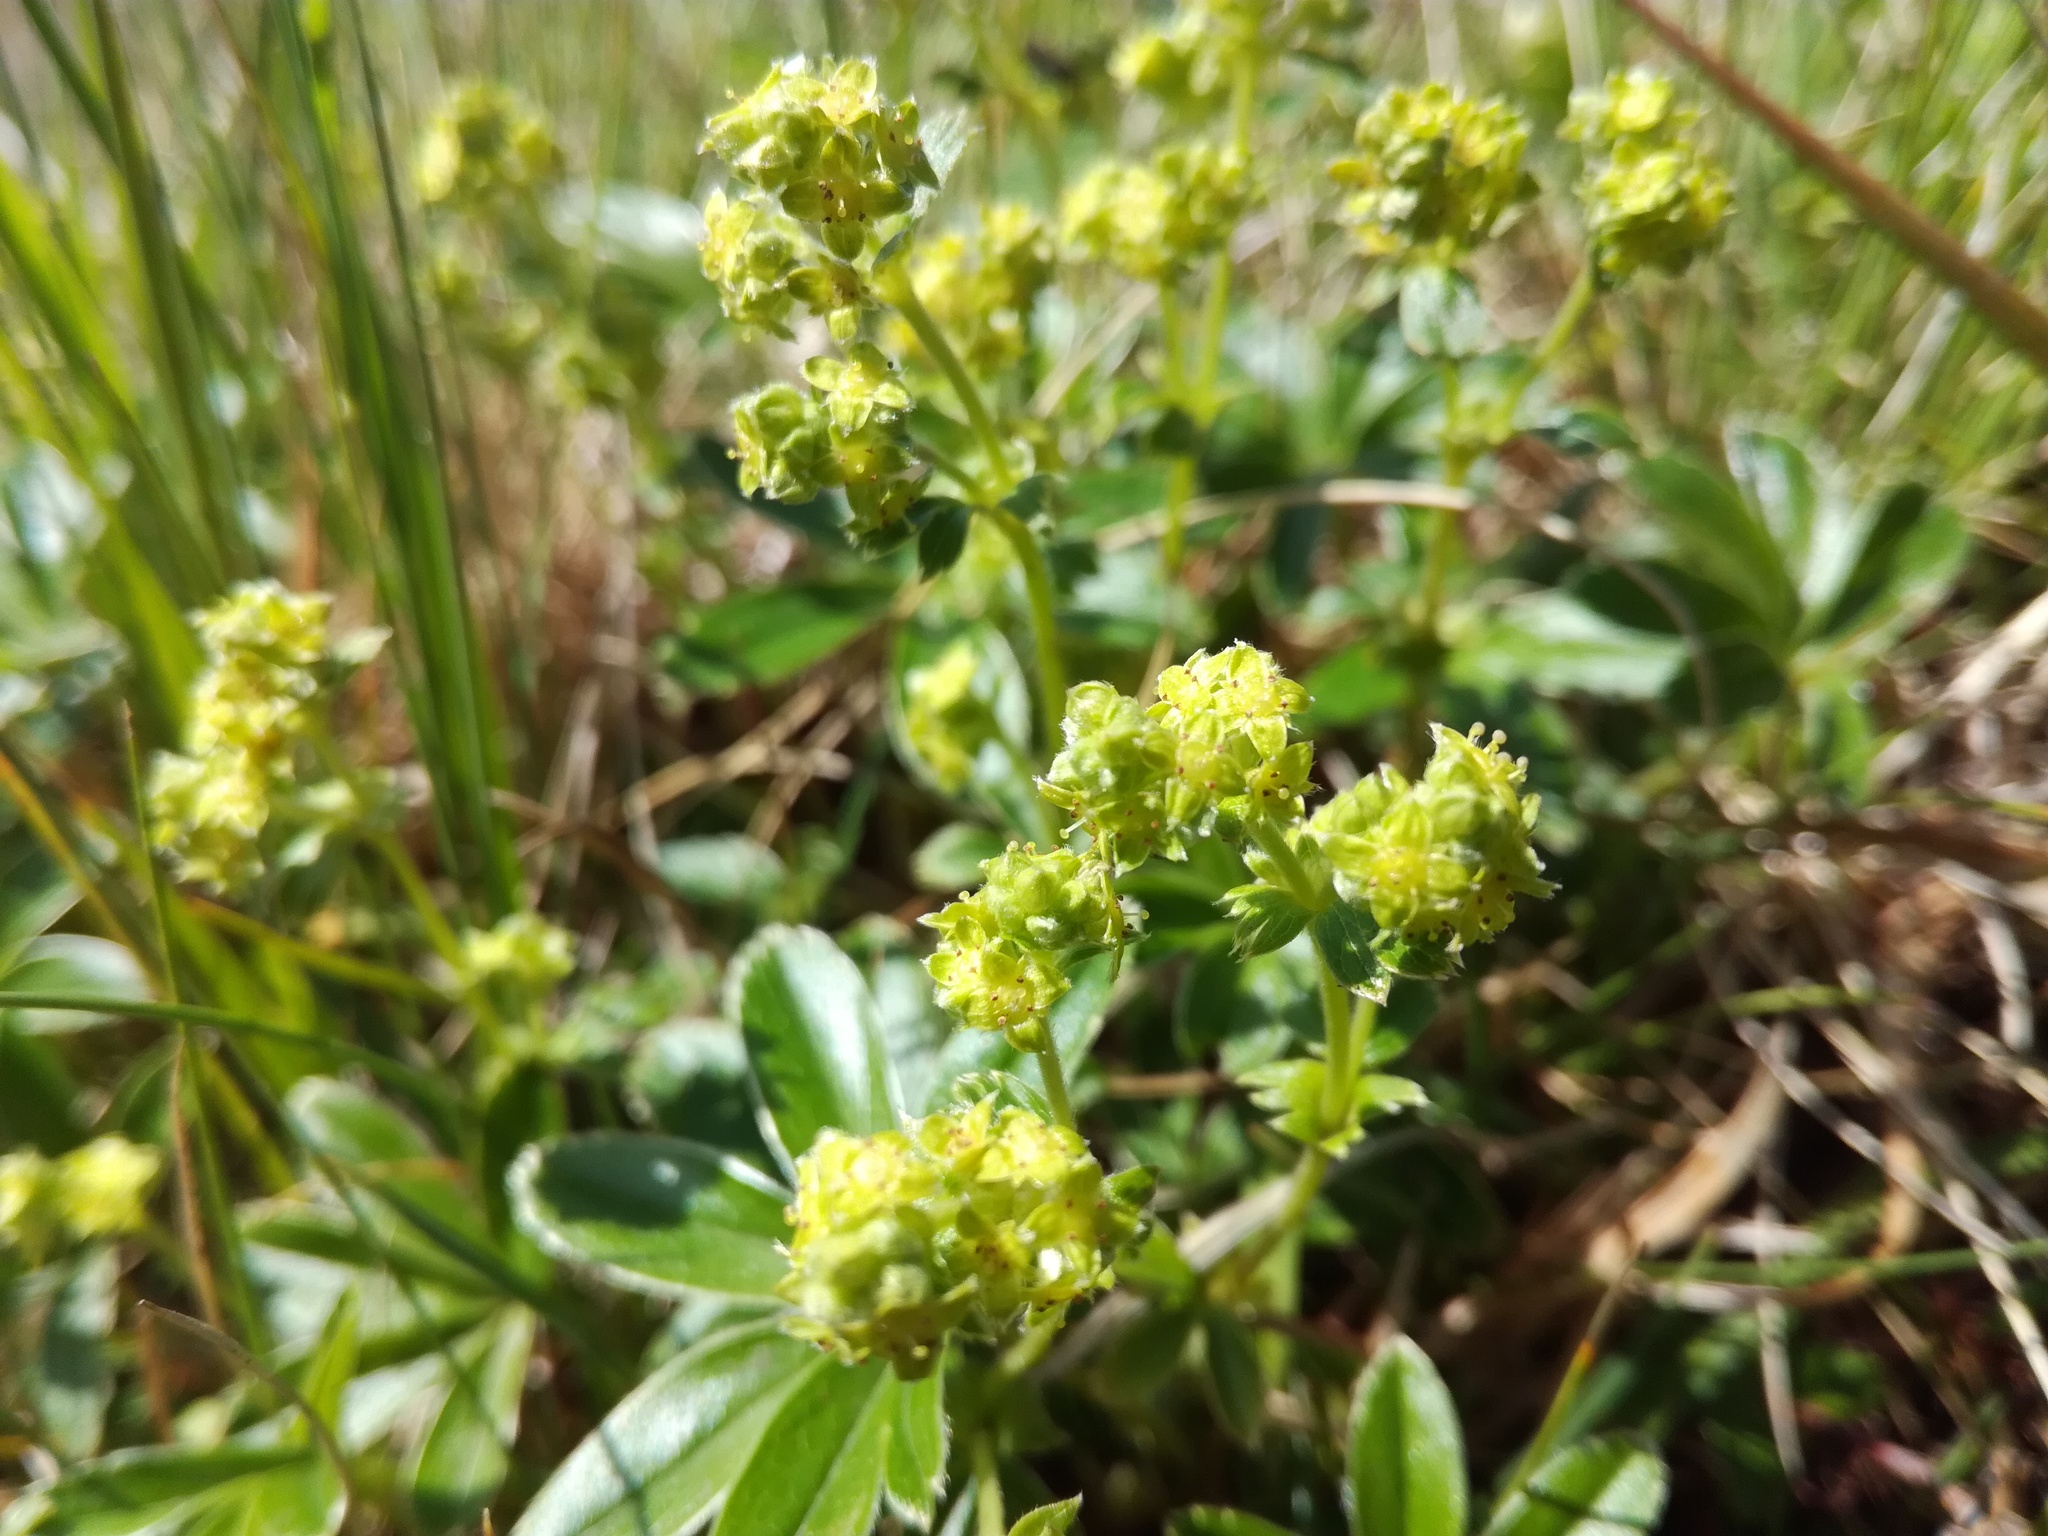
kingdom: Plantae
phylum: Tracheophyta
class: Magnoliopsida
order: Rosales
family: Rosaceae
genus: Alchemilla
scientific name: Alchemilla alpina
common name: Alpine lady's-mantle
